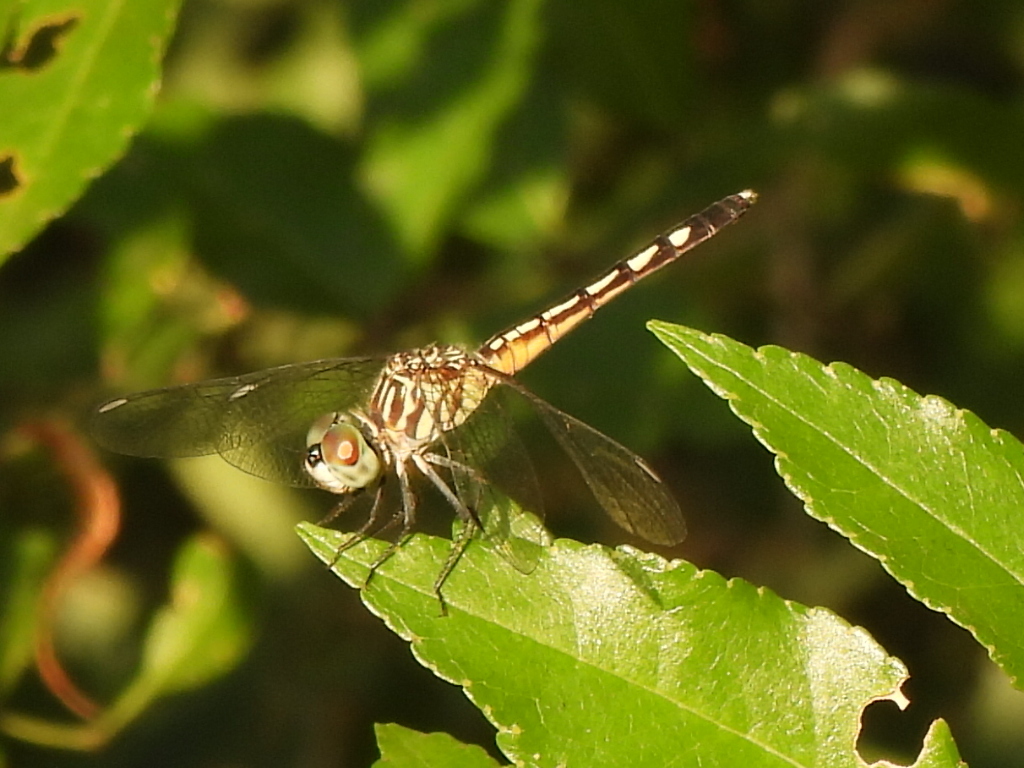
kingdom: Animalia
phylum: Arthropoda
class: Insecta
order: Odonata
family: Libellulidae
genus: Pachydiplax
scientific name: Pachydiplax longipennis
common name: Blue dasher
